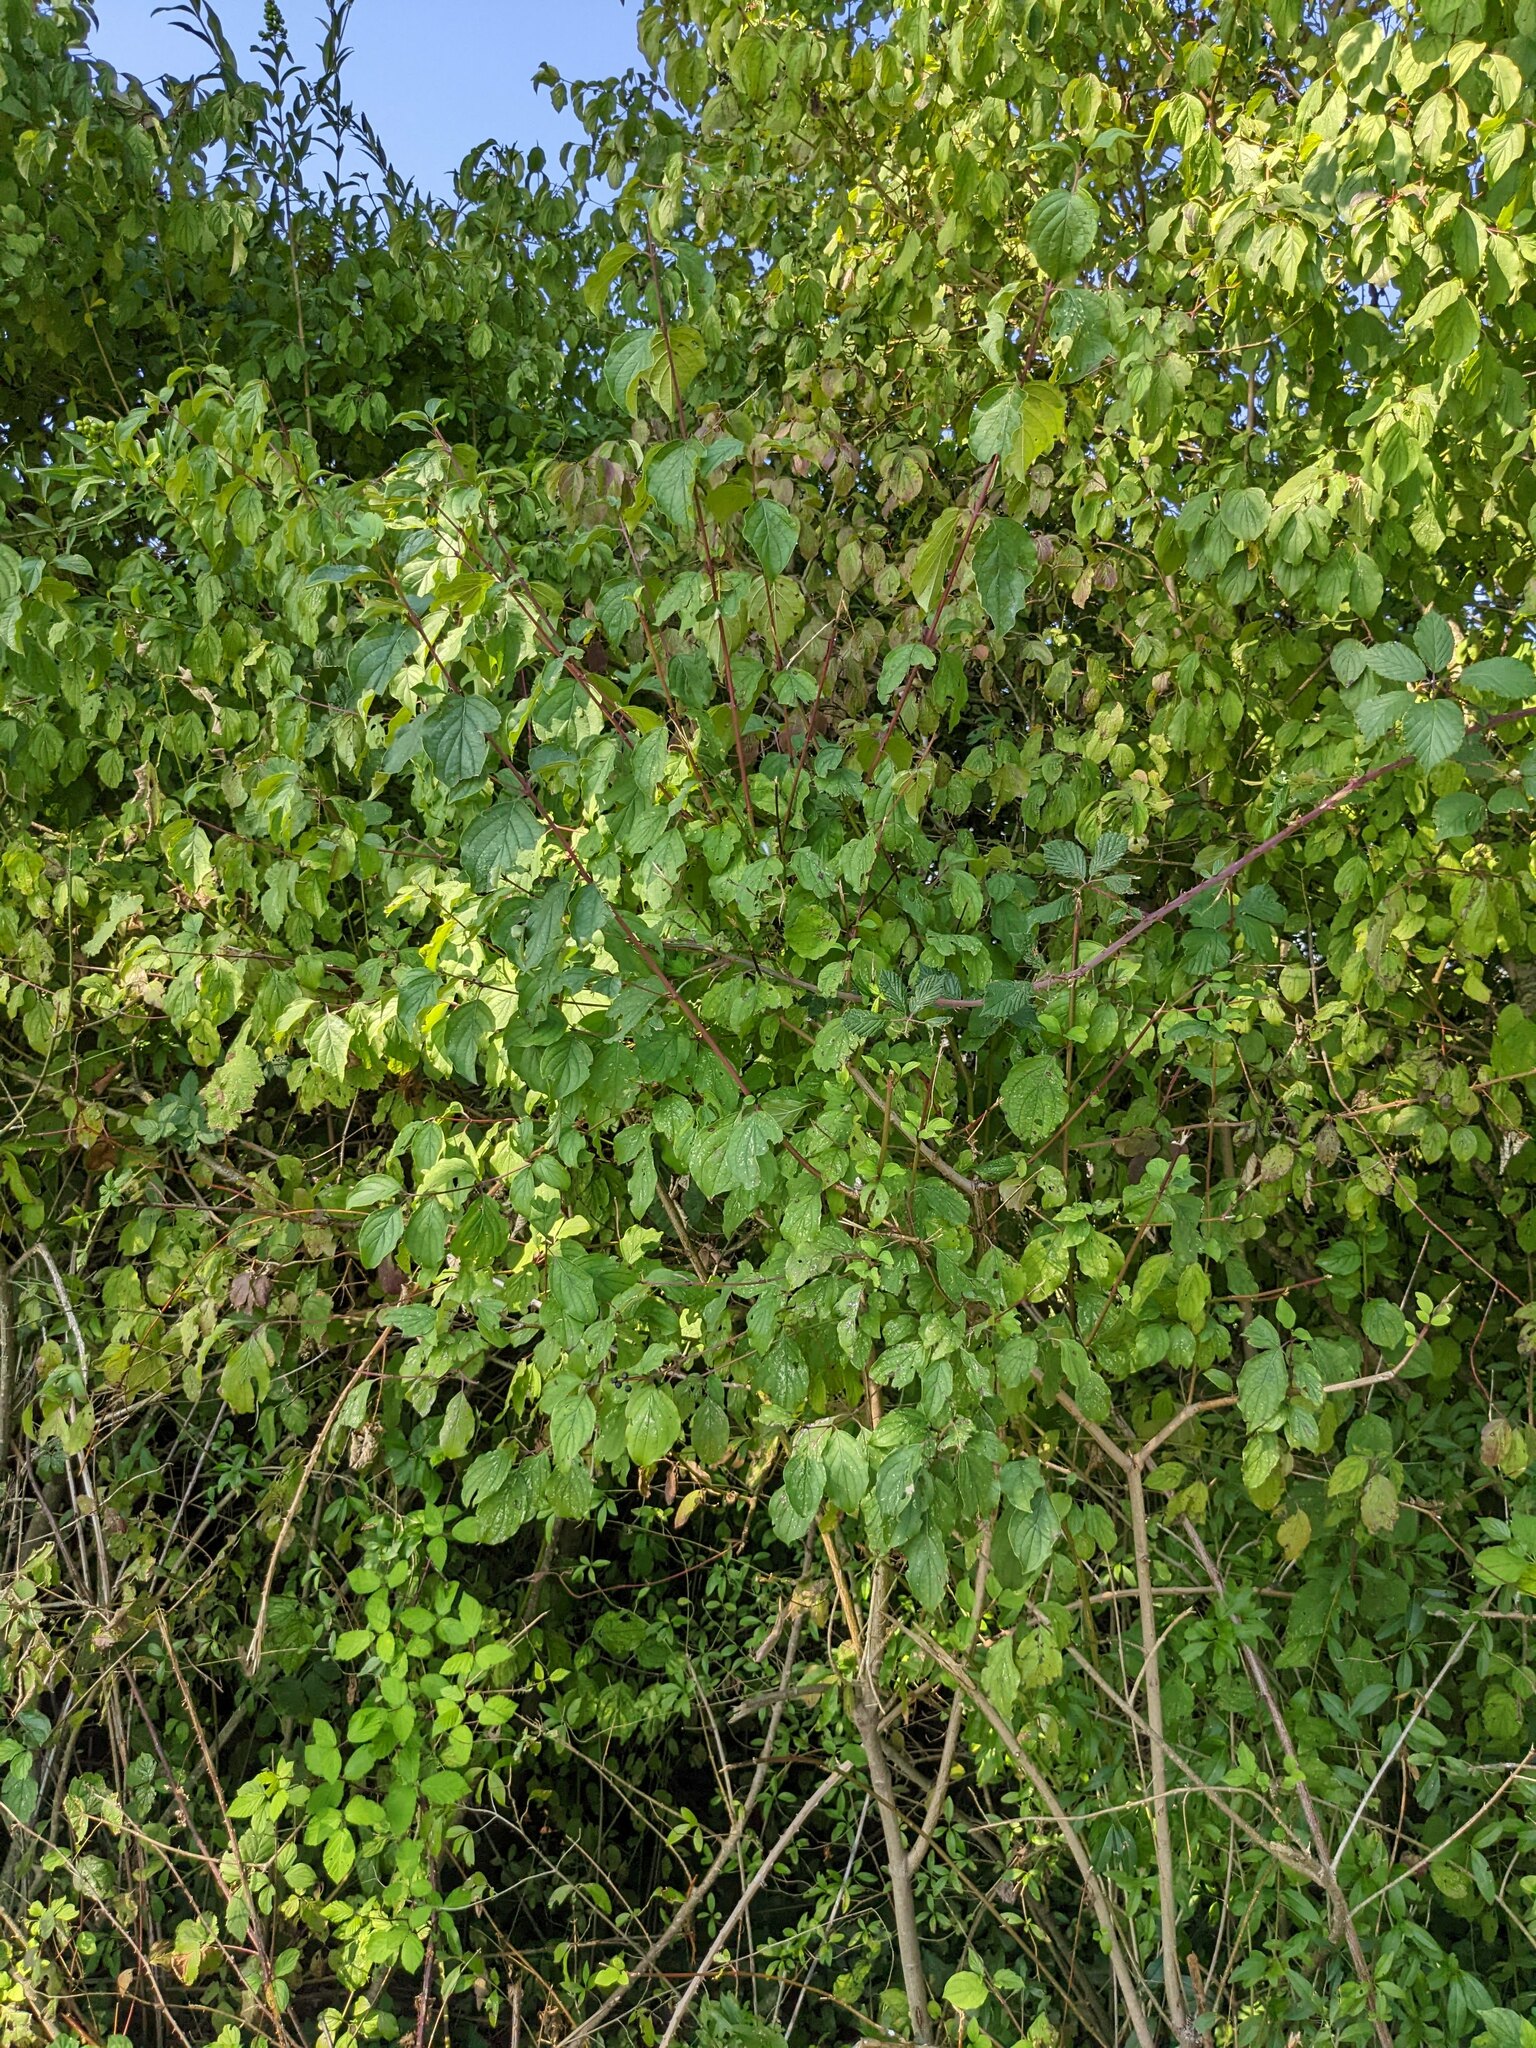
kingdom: Plantae
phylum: Tracheophyta
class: Magnoliopsida
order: Cornales
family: Cornaceae
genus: Cornus
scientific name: Cornus sanguinea
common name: Dogwood
